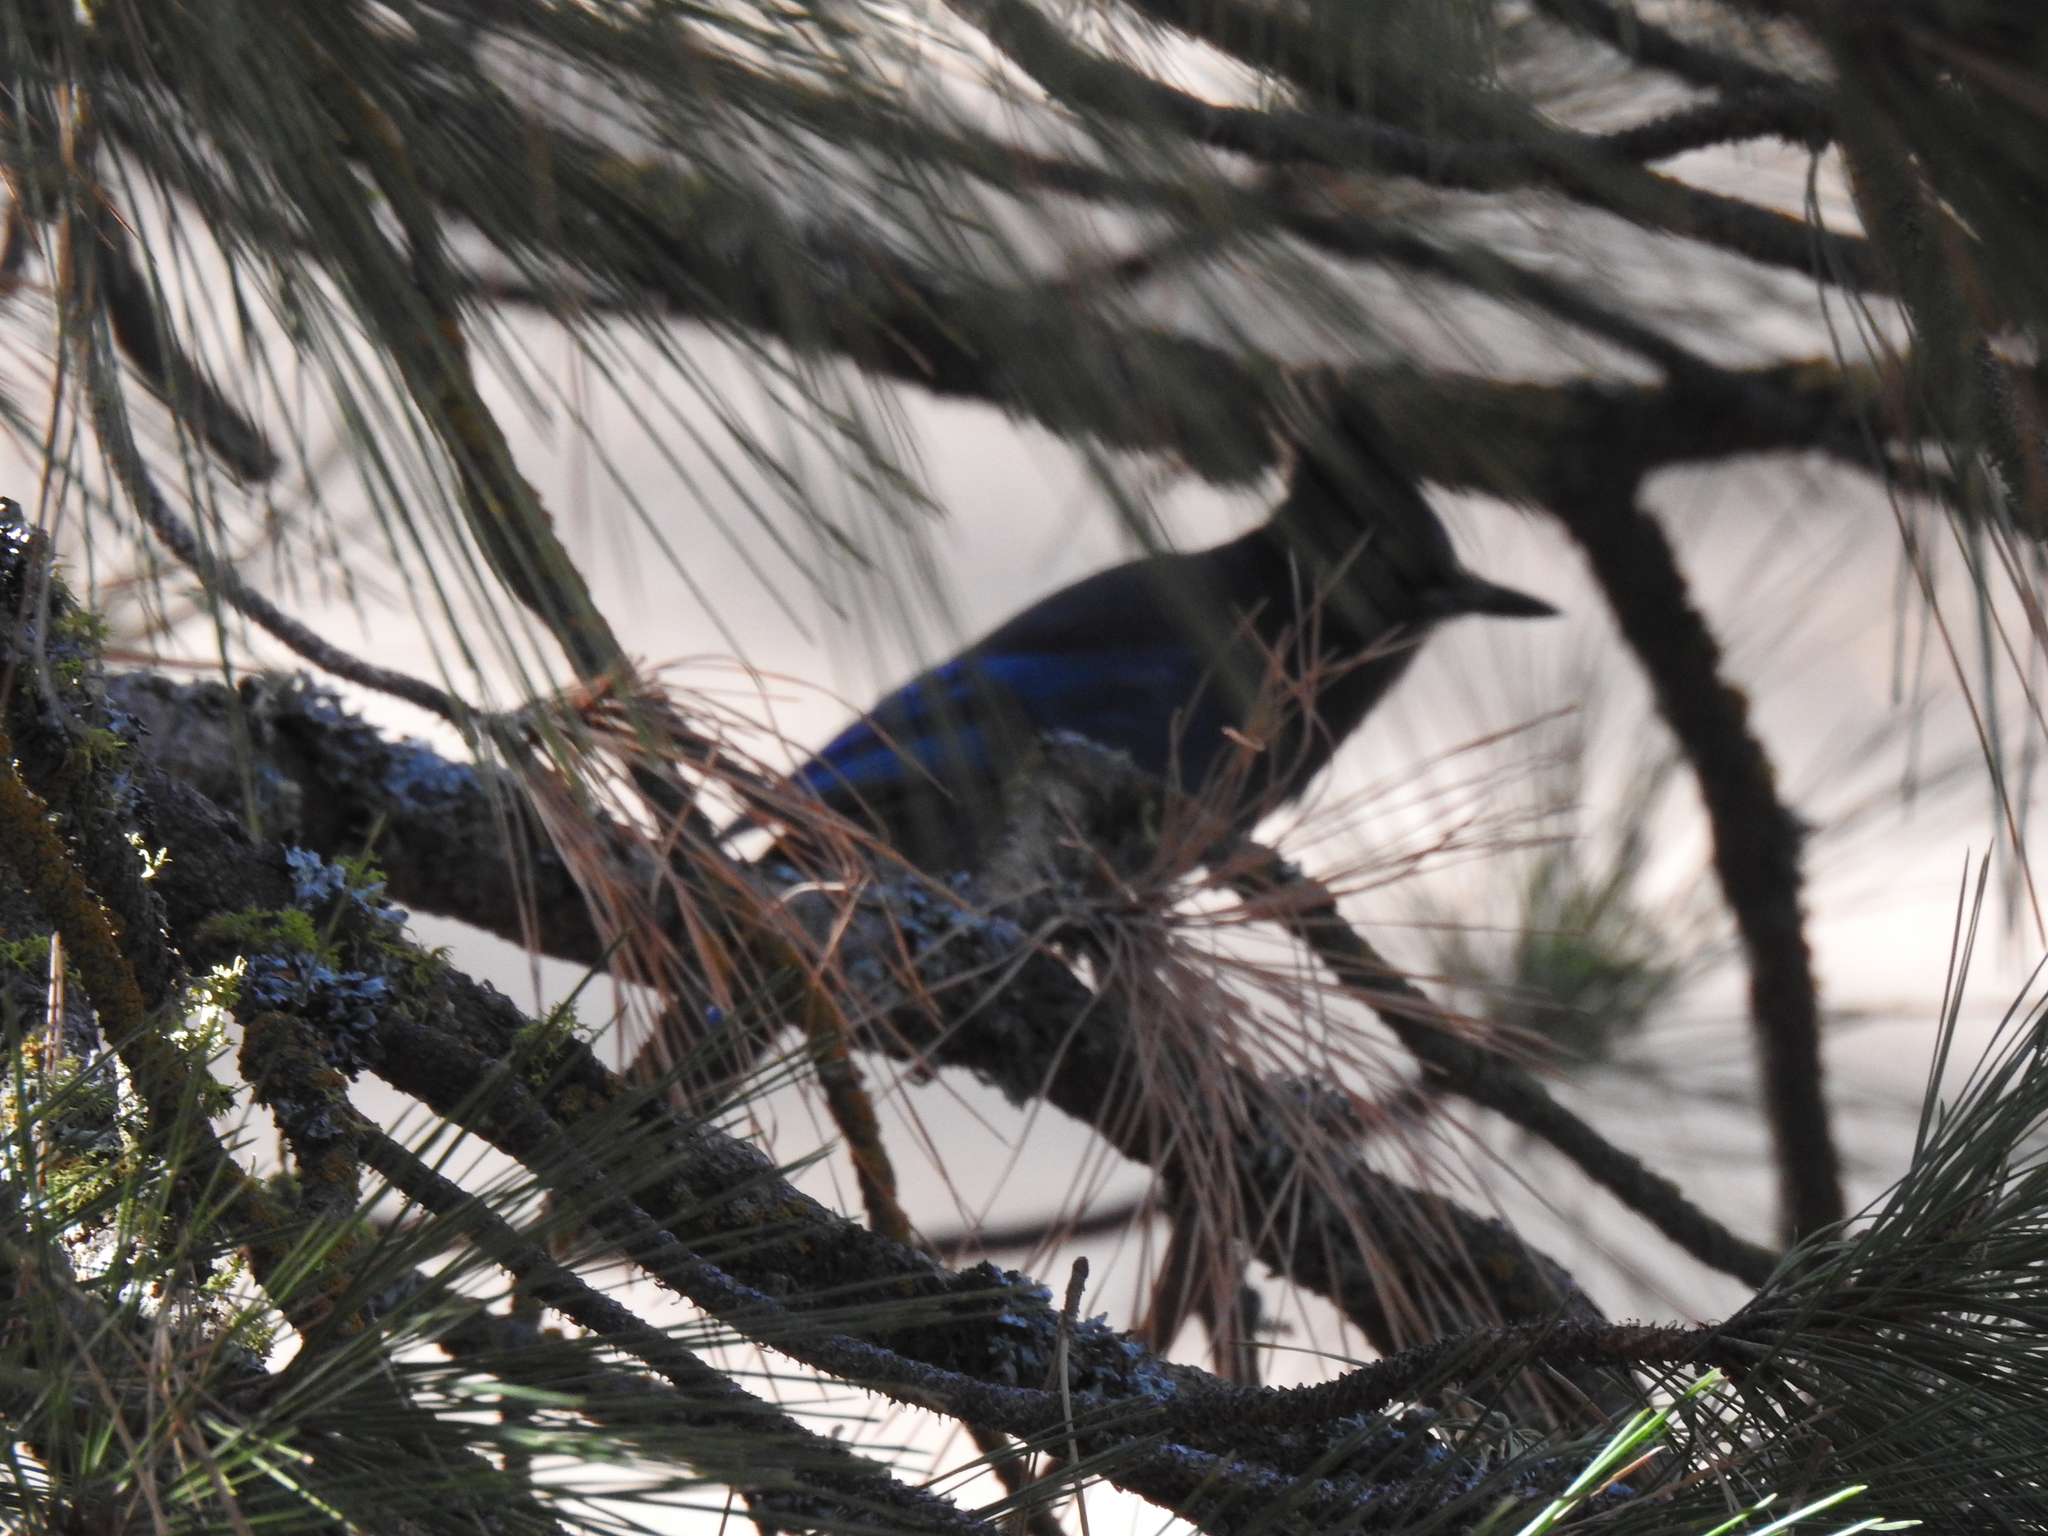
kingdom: Animalia
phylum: Chordata
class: Aves
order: Passeriformes
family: Corvidae
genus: Cyanocitta
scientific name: Cyanocitta stelleri
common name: Steller's jay
